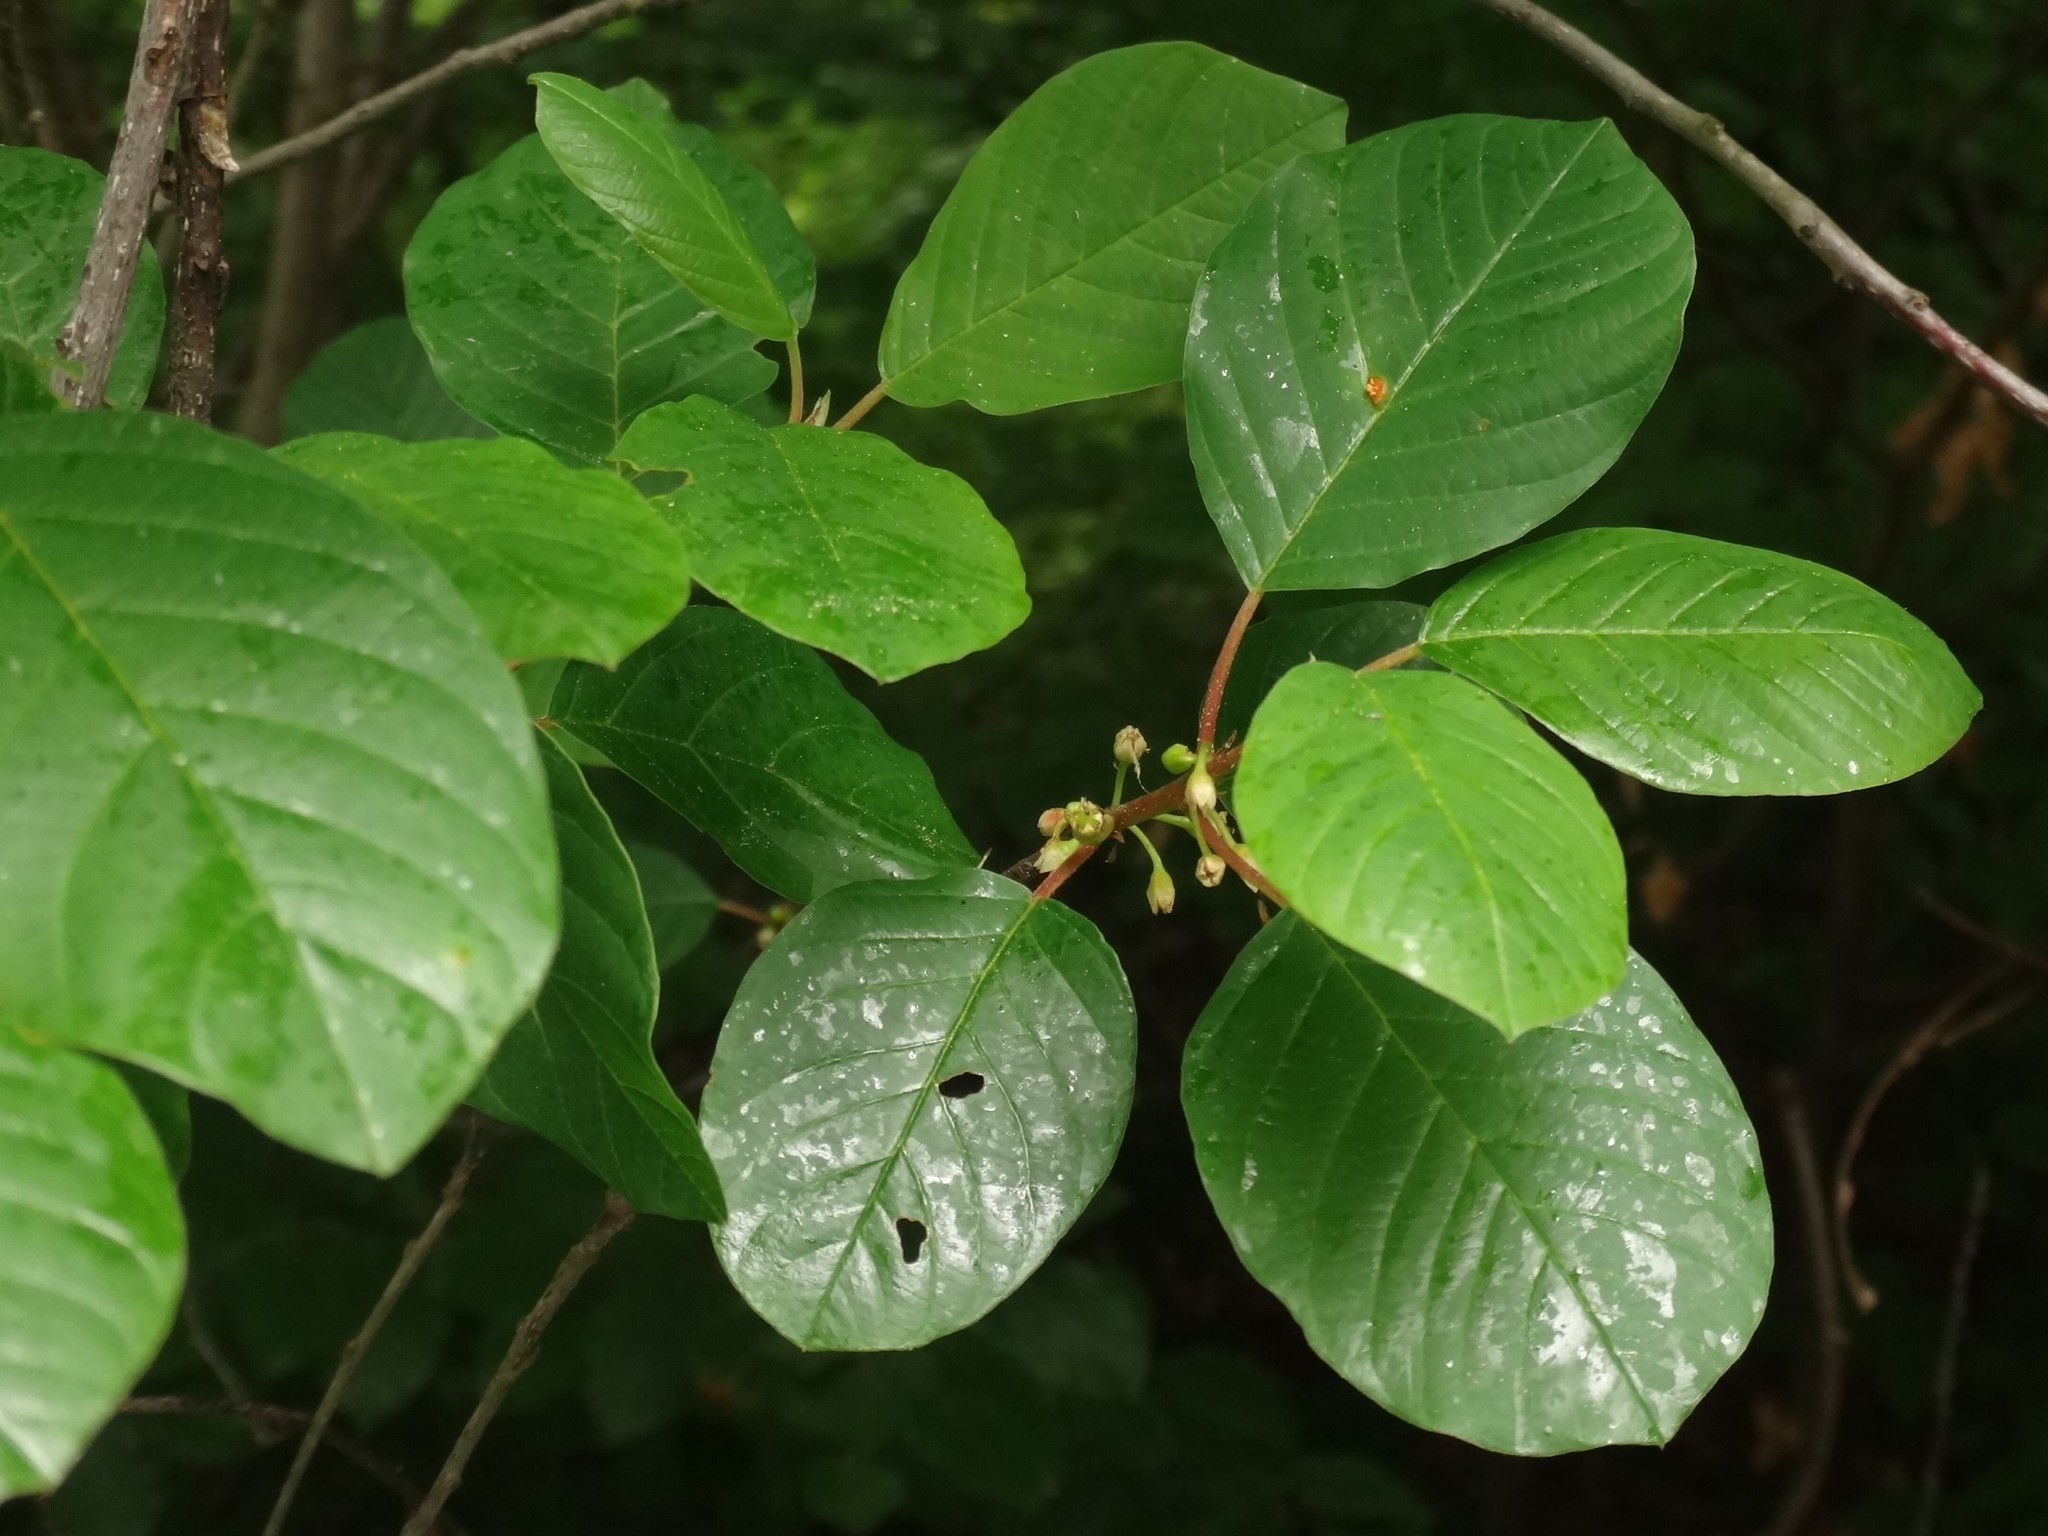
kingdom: Plantae
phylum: Tracheophyta
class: Magnoliopsida
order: Rosales
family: Rhamnaceae
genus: Frangula
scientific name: Frangula alnus
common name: Alder buckthorn
